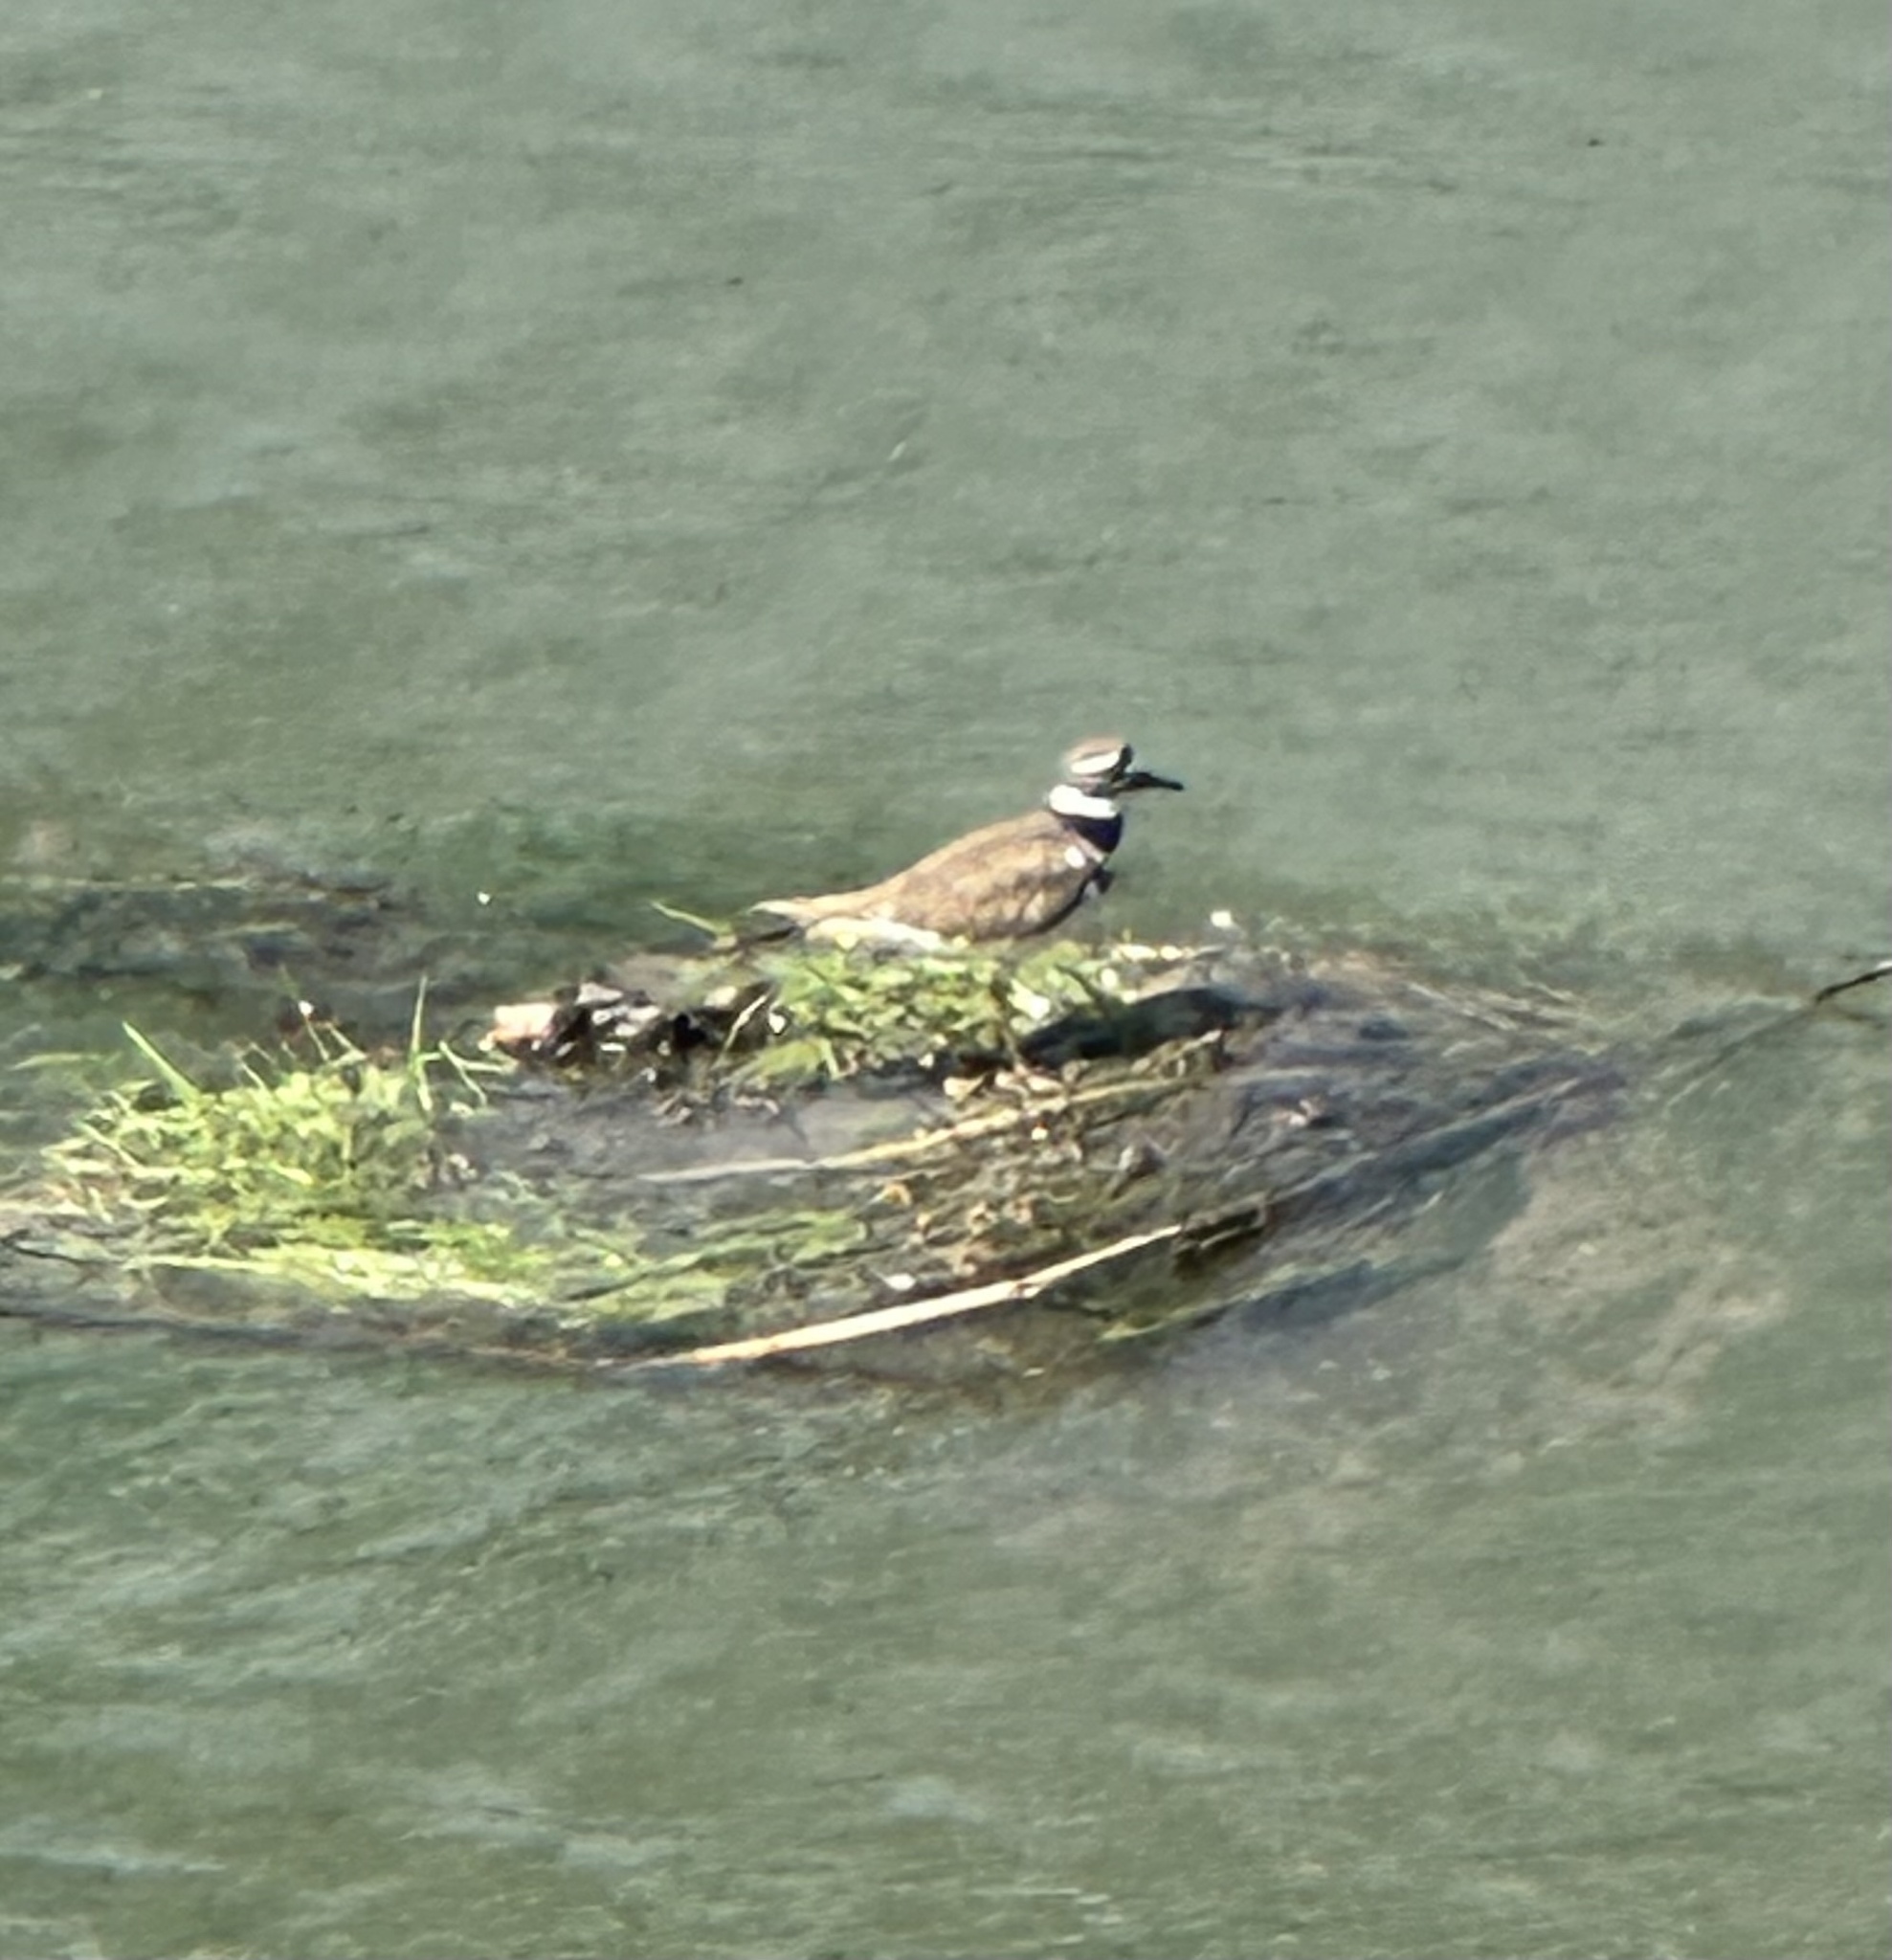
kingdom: Animalia
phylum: Chordata
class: Aves
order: Charadriiformes
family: Charadriidae
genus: Charadrius
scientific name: Charadrius vociferus
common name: Killdeer
